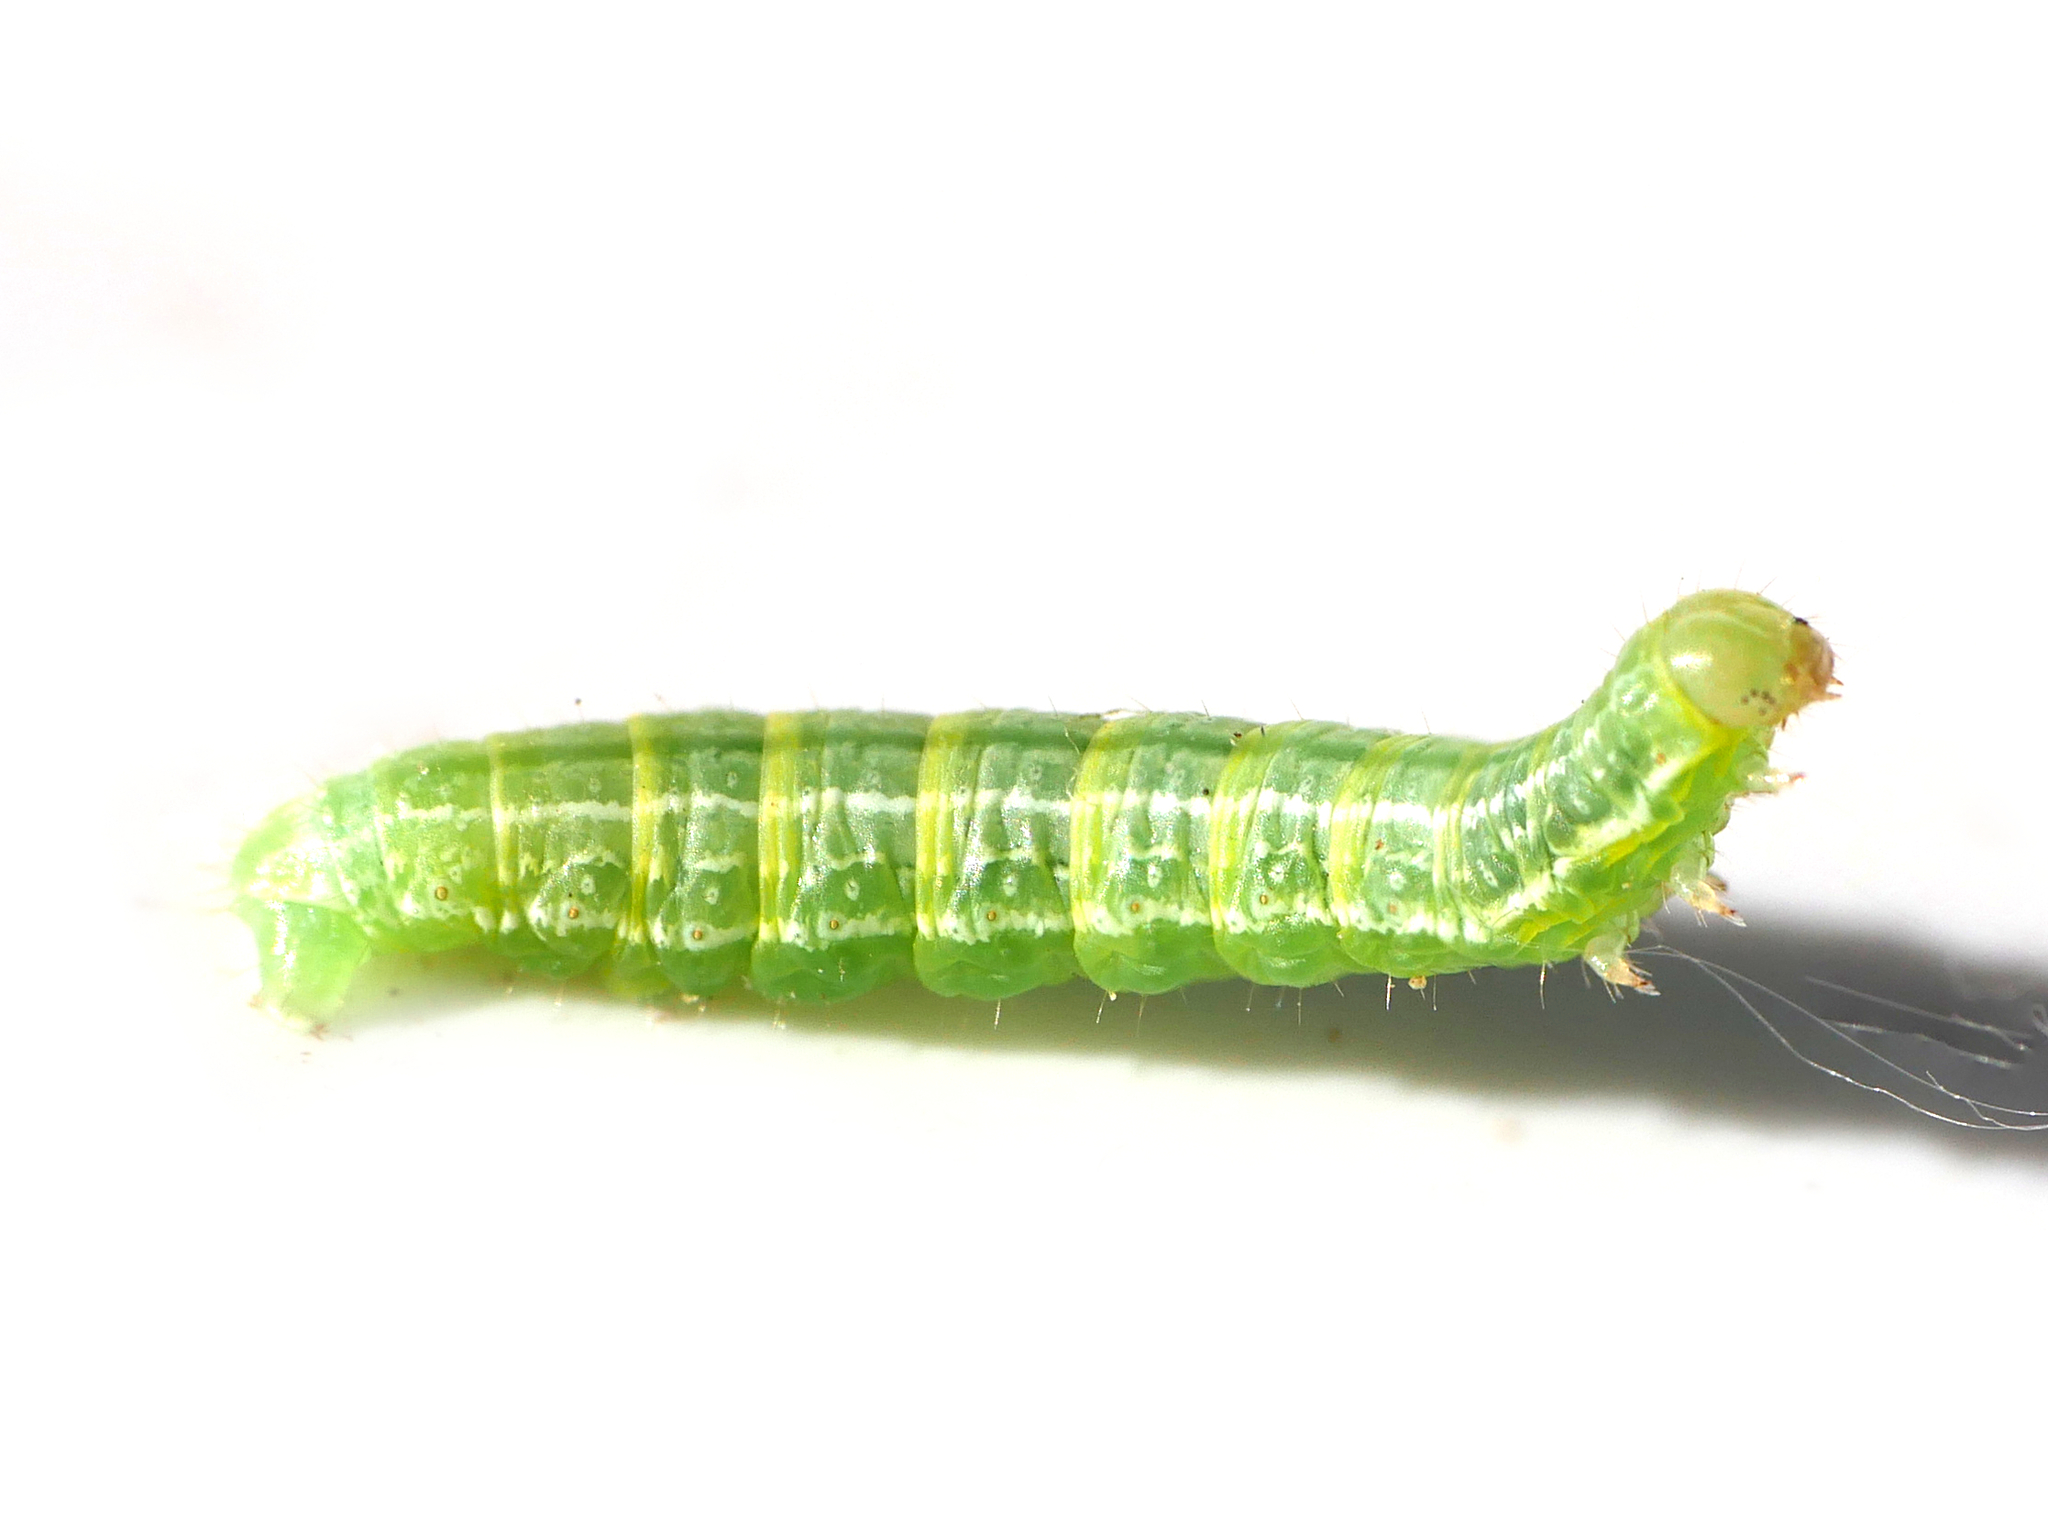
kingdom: Animalia
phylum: Arthropoda
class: Insecta
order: Lepidoptera
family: Geometridae
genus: Operophtera
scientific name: Operophtera brumata
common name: Winter moth
